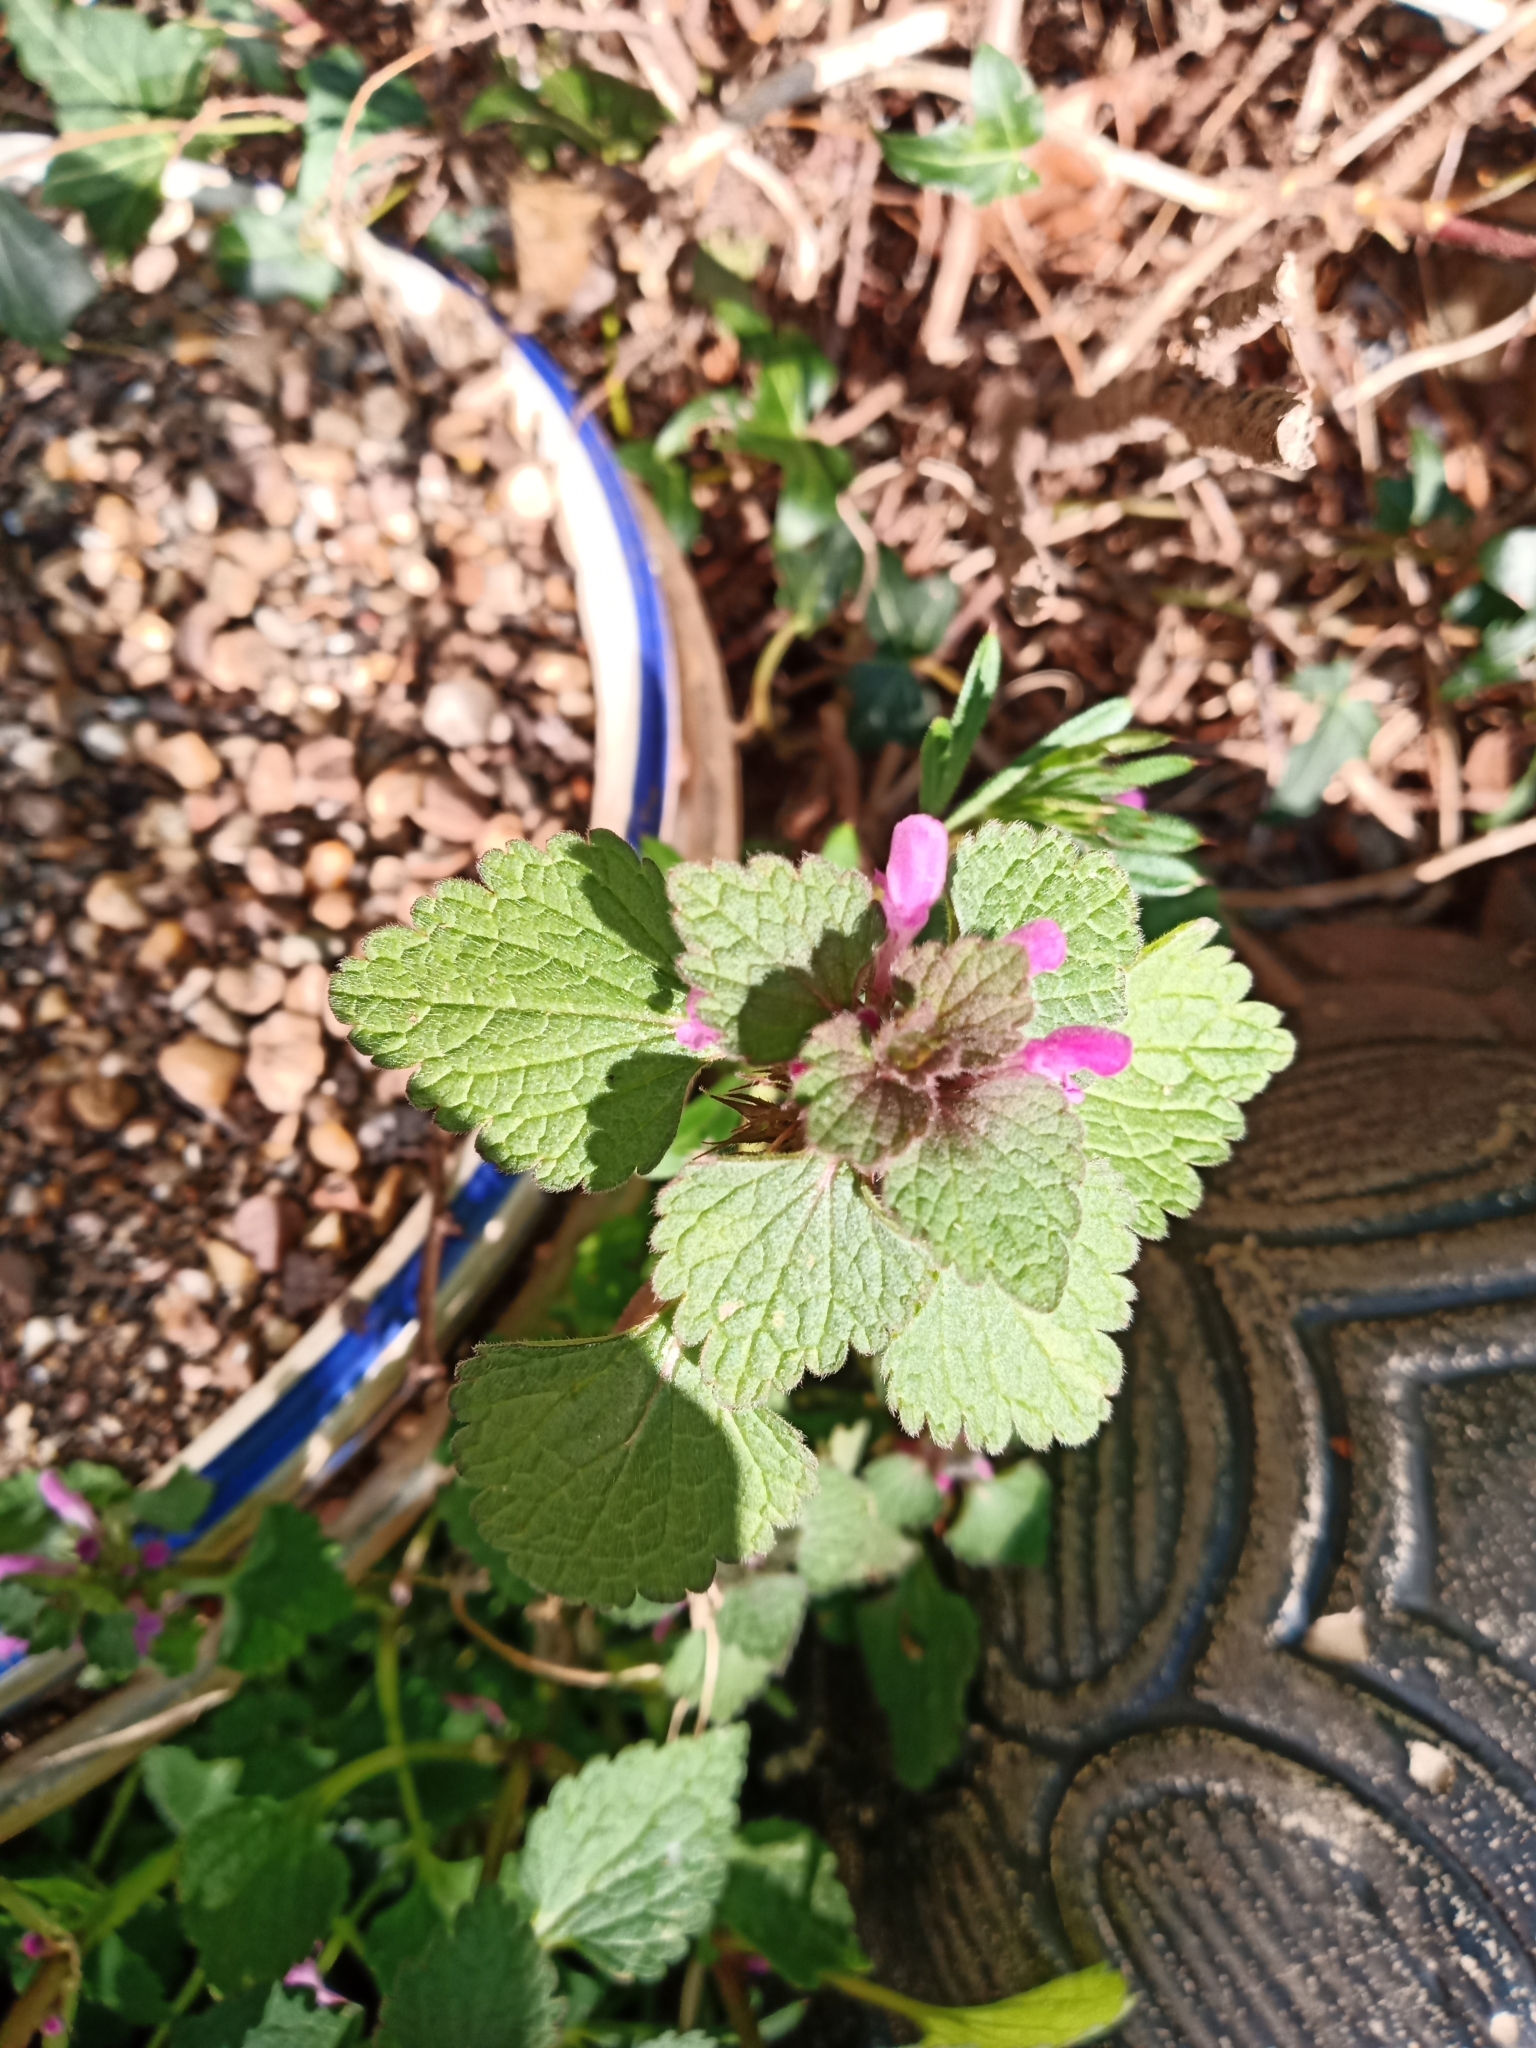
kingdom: Plantae
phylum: Tracheophyta
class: Magnoliopsida
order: Lamiales
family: Lamiaceae
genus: Lamium
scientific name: Lamium purpureum
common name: Red dead-nettle
